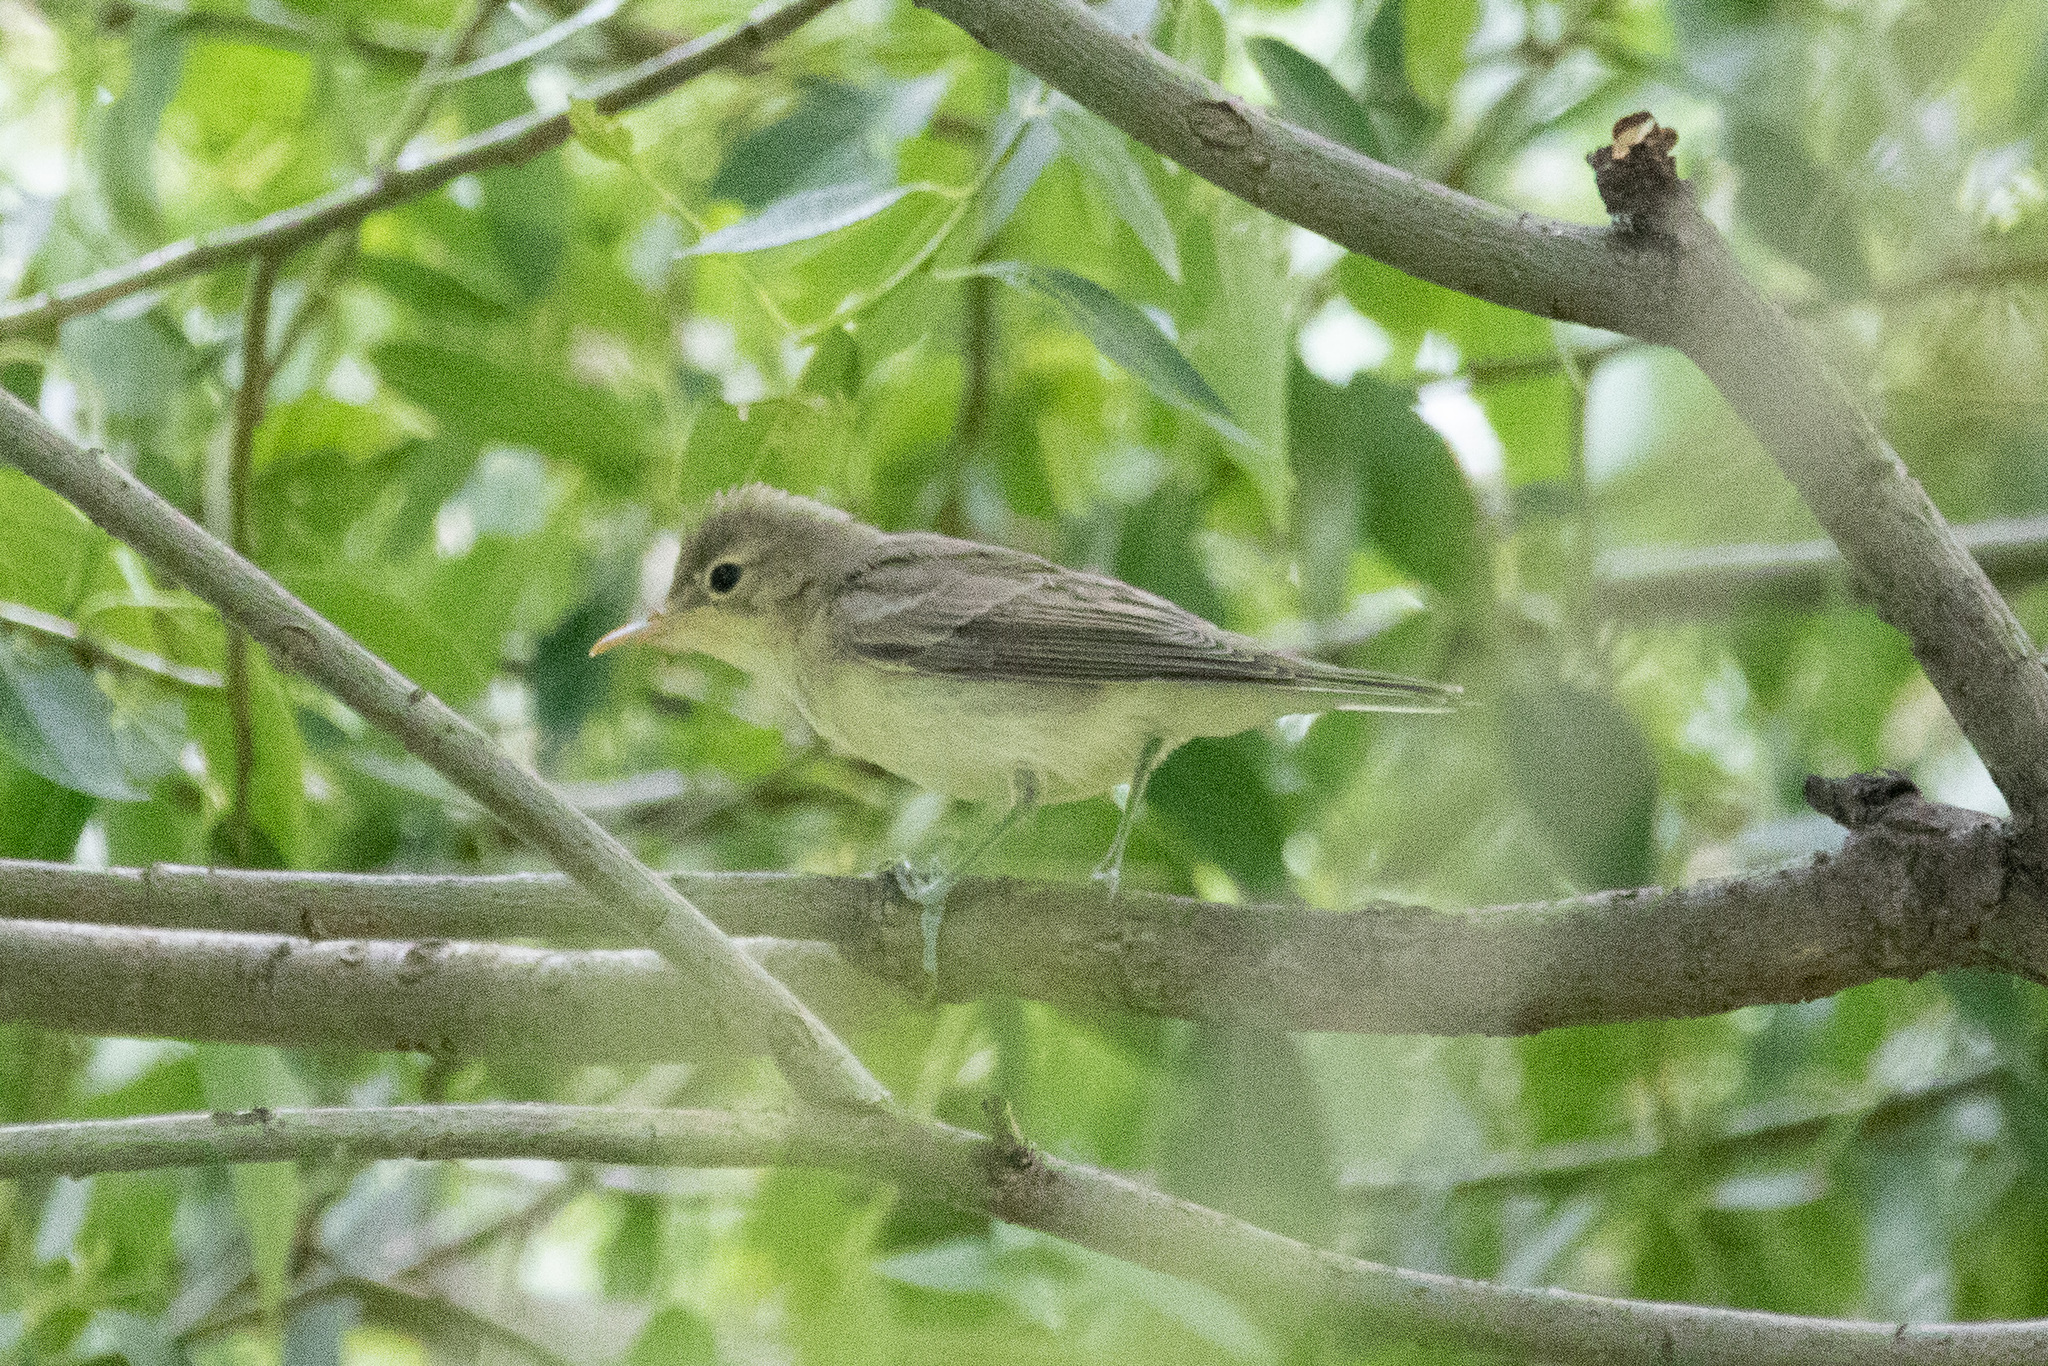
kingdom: Animalia
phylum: Chordata
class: Aves
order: Passeriformes
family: Acrocephalidae
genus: Hippolais
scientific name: Hippolais icterina
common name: Icterine warbler
